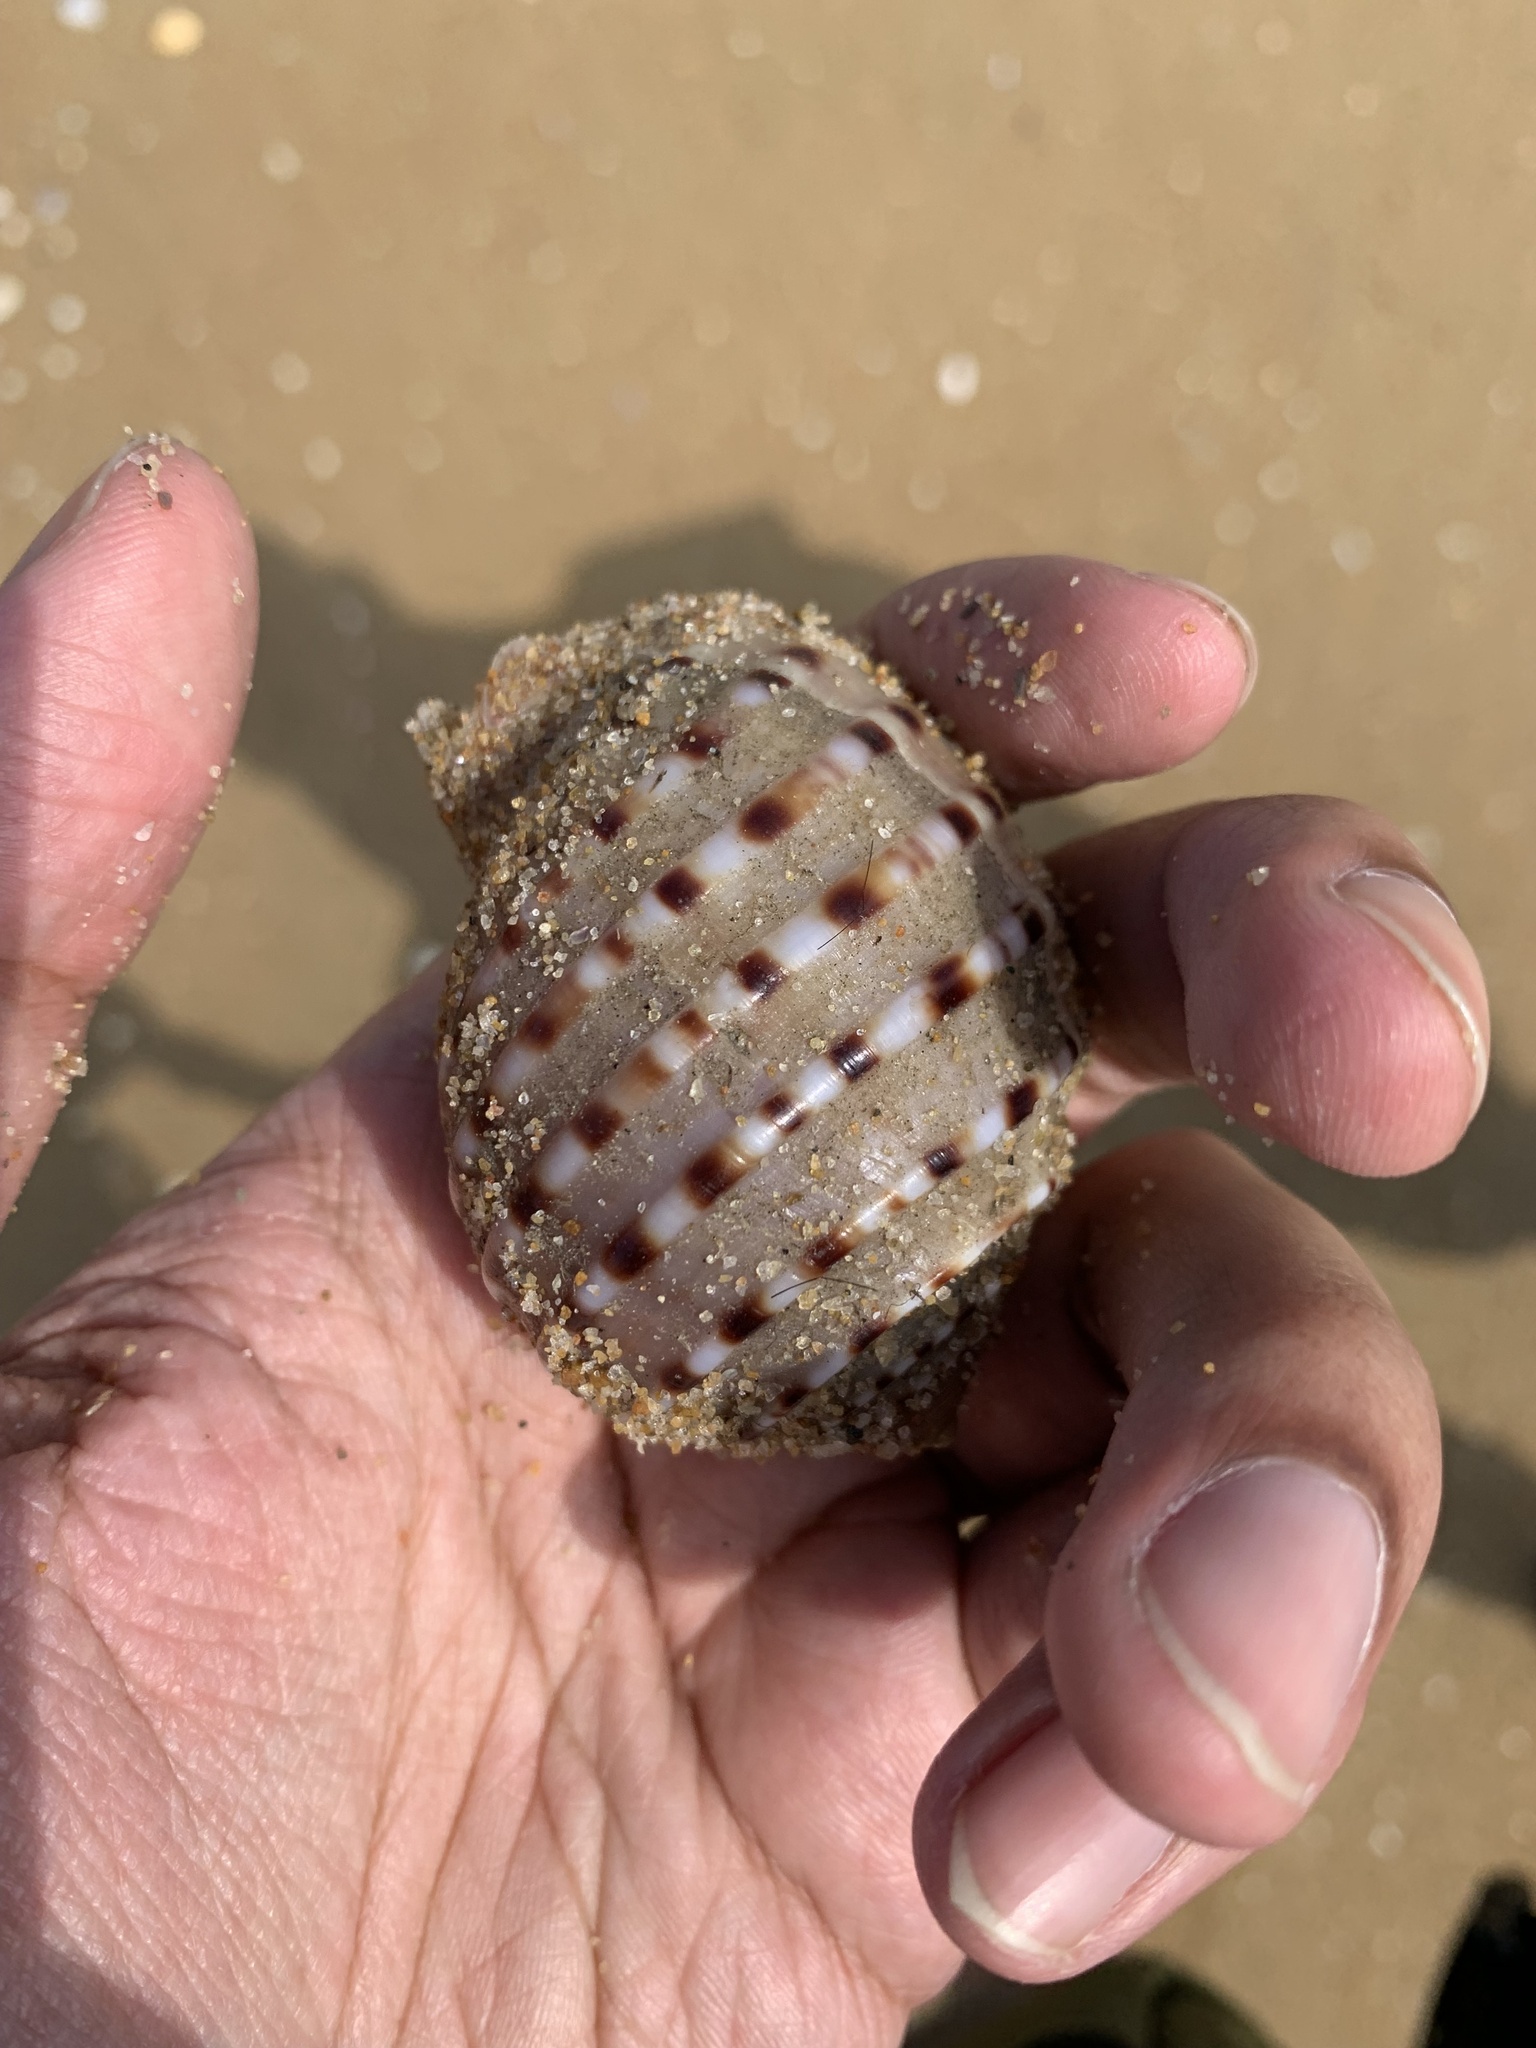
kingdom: Animalia
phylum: Mollusca
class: Gastropoda
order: Littorinimorpha
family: Tonnidae
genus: Tonna
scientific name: Tonna dolium
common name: Spotted tun
